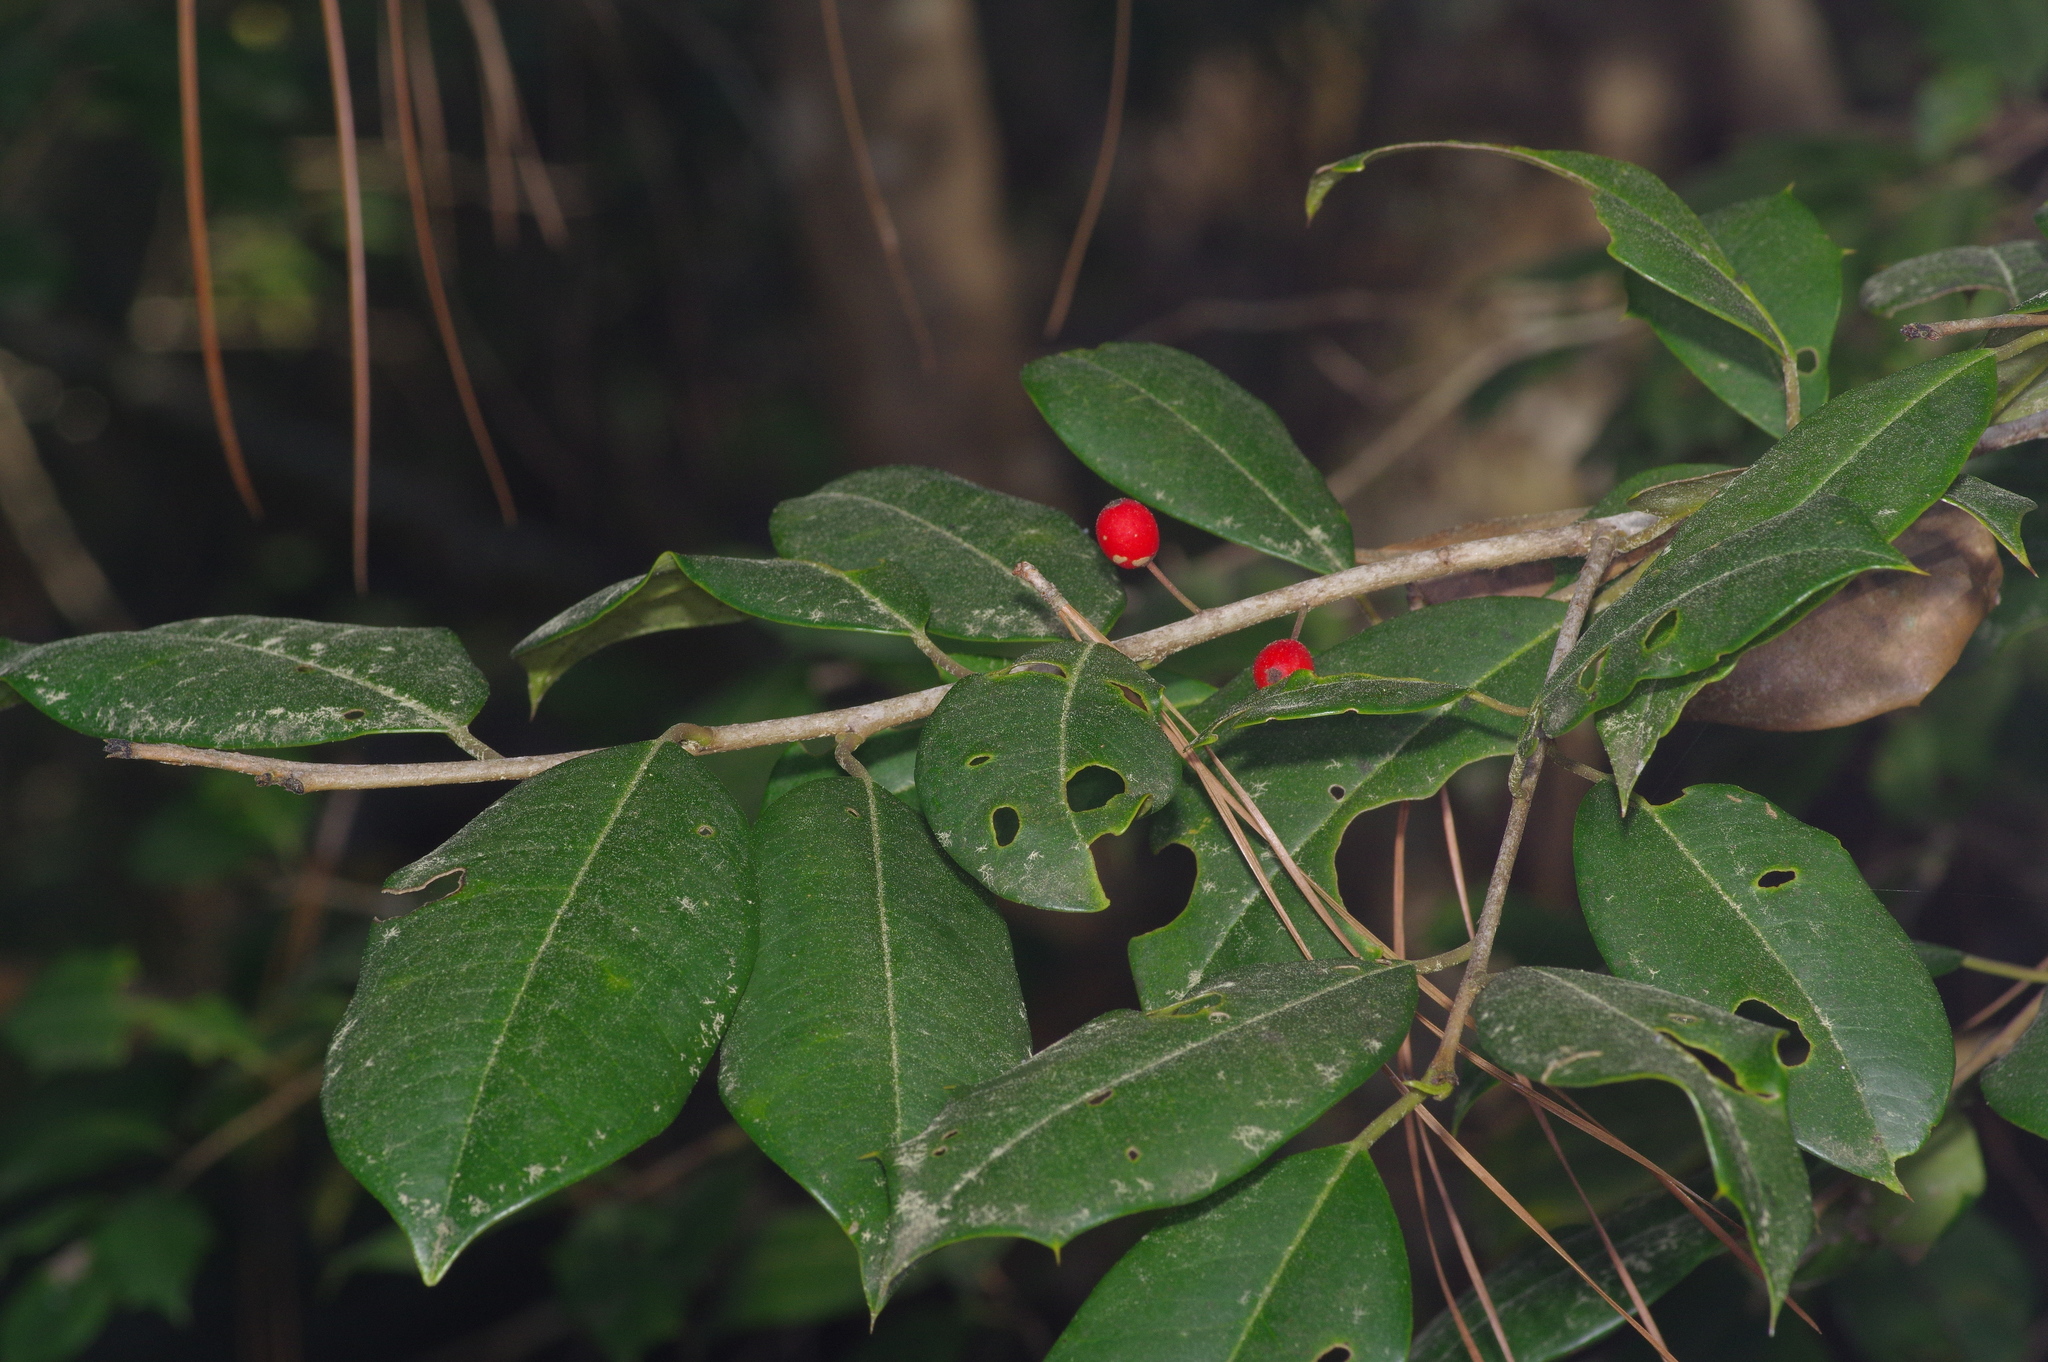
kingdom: Plantae
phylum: Tracheophyta
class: Magnoliopsida
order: Aquifoliales
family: Aquifoliaceae
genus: Ilex
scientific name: Ilex opaca
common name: American holly
